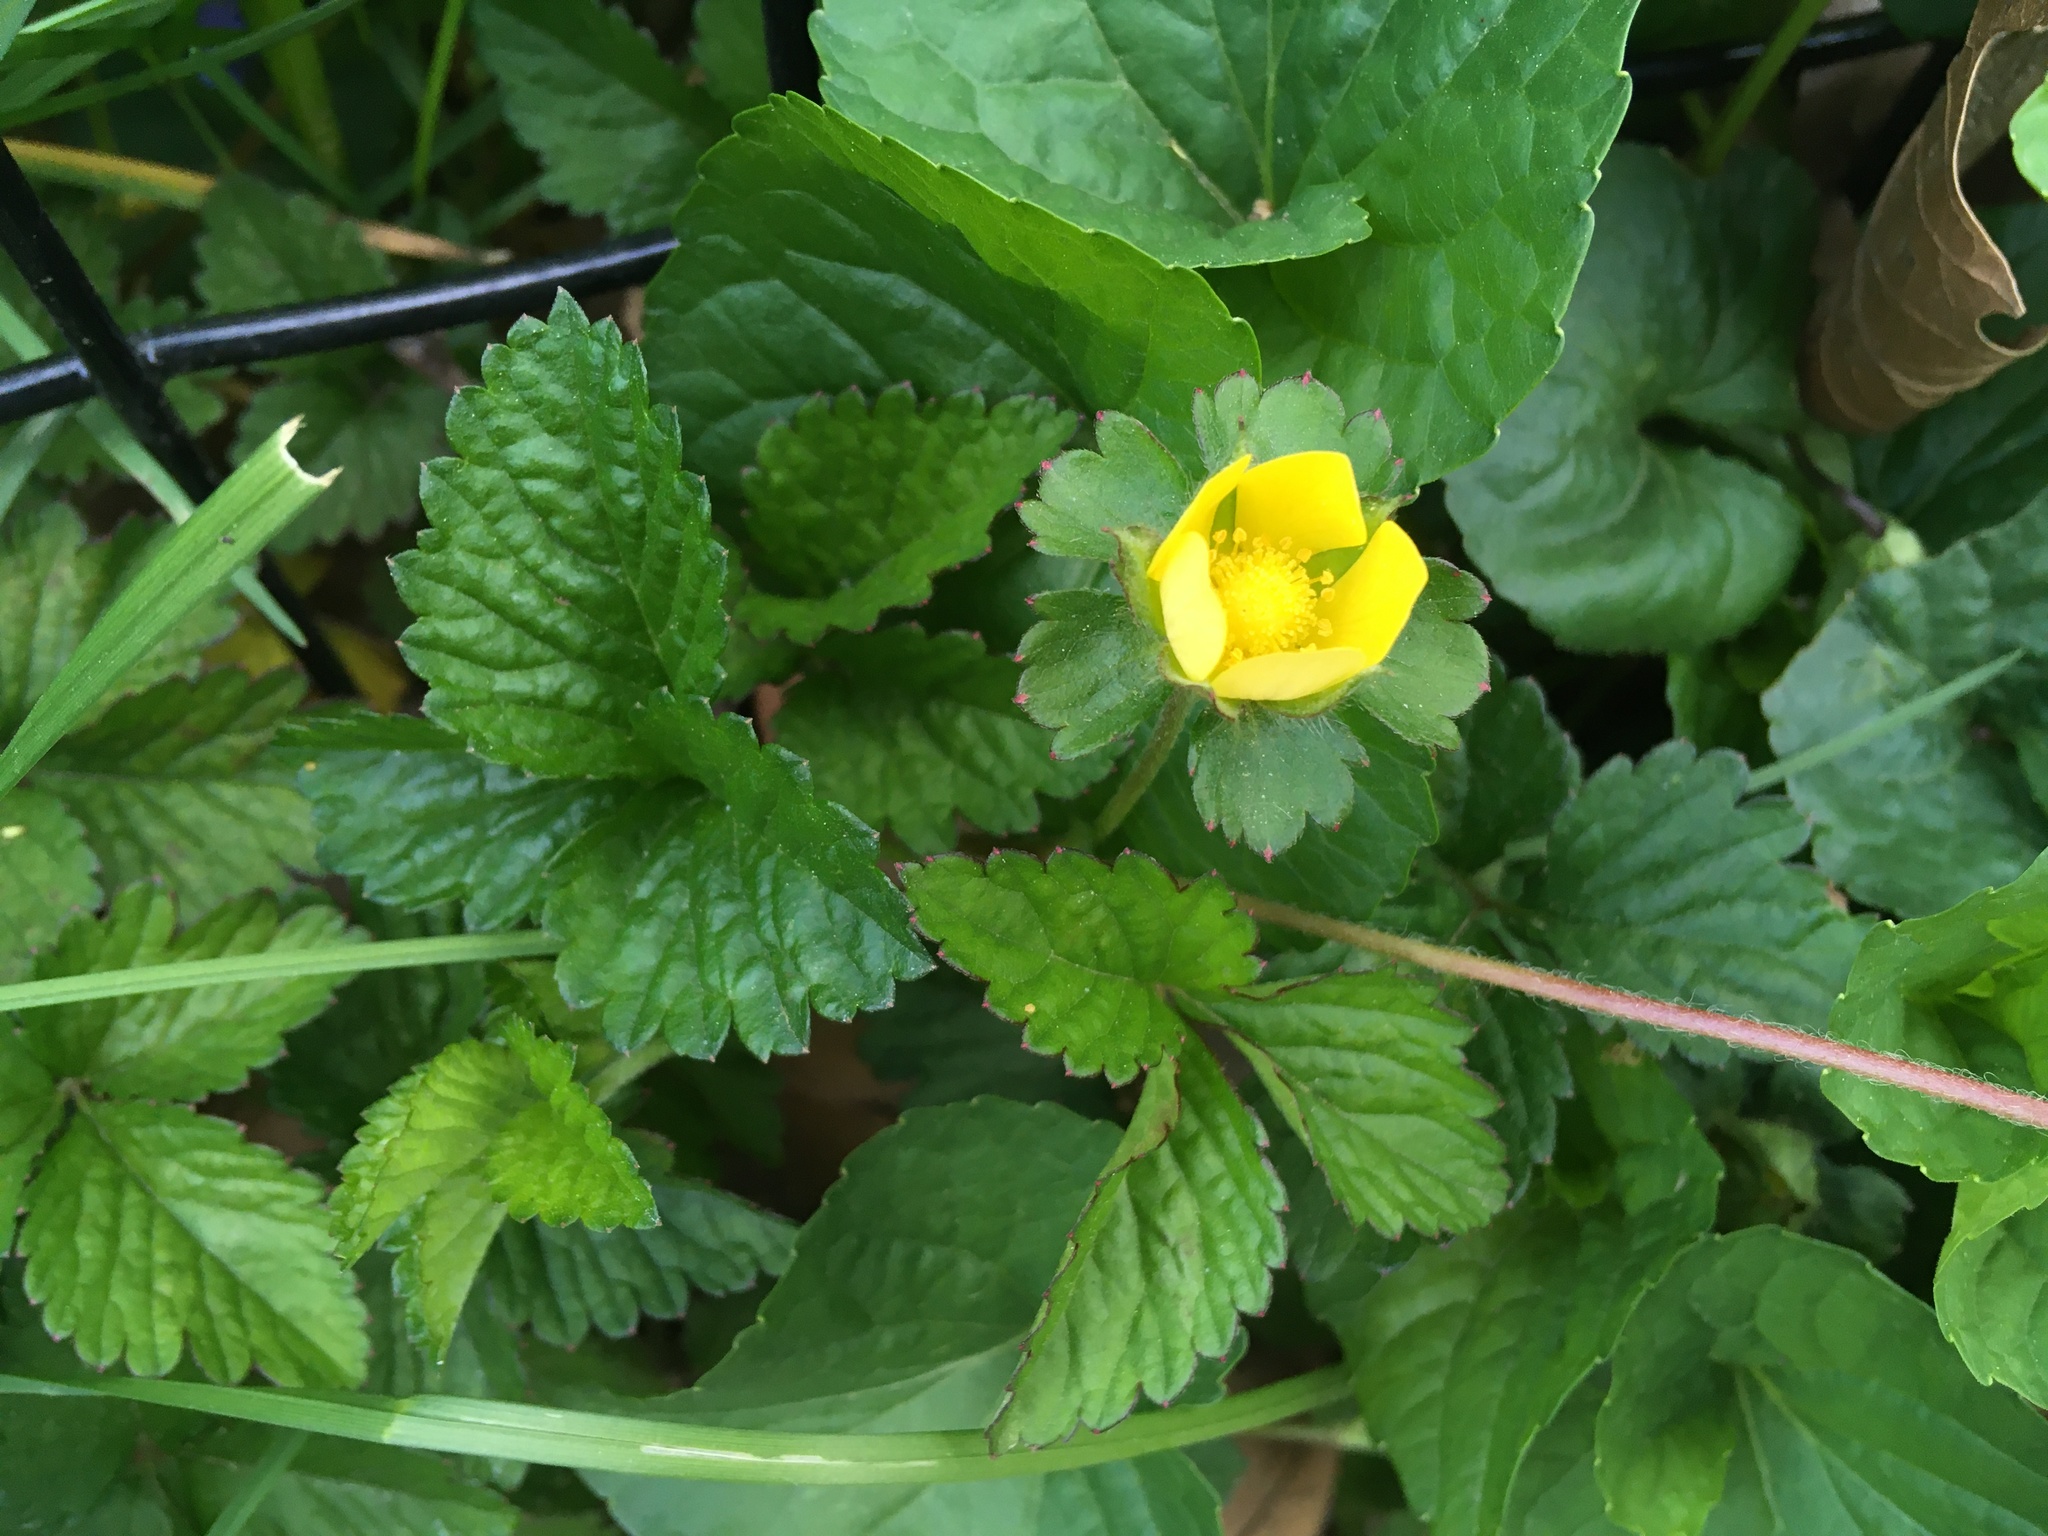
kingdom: Plantae
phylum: Tracheophyta
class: Magnoliopsida
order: Rosales
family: Rosaceae
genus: Potentilla
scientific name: Potentilla indica
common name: Yellow-flowered strawberry
